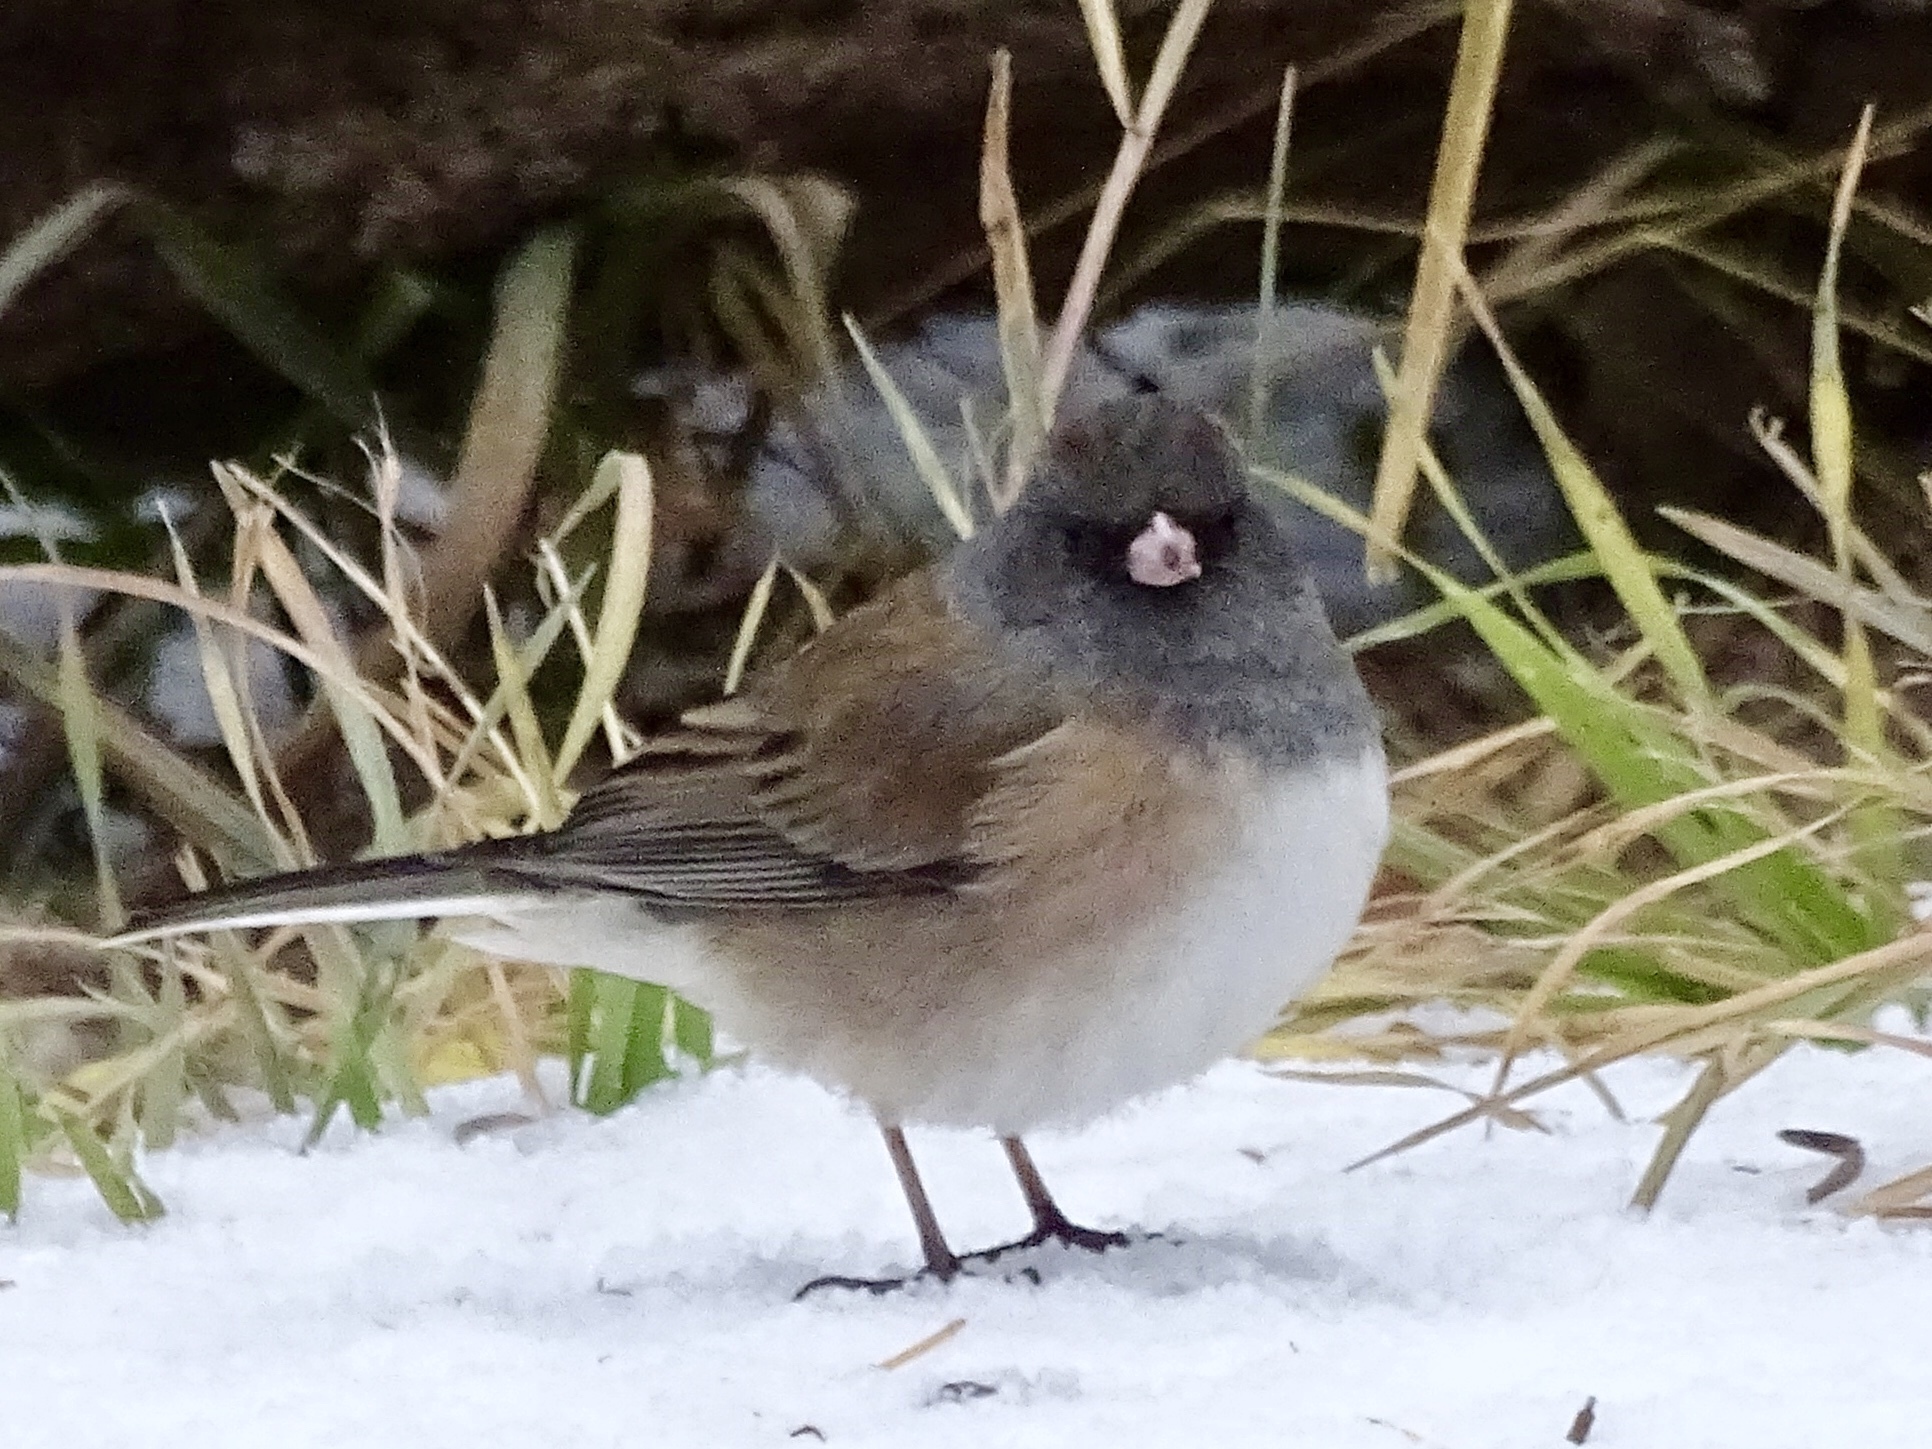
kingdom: Animalia
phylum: Chordata
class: Aves
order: Passeriformes
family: Passerellidae
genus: Junco
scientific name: Junco hyemalis
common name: Dark-eyed junco
